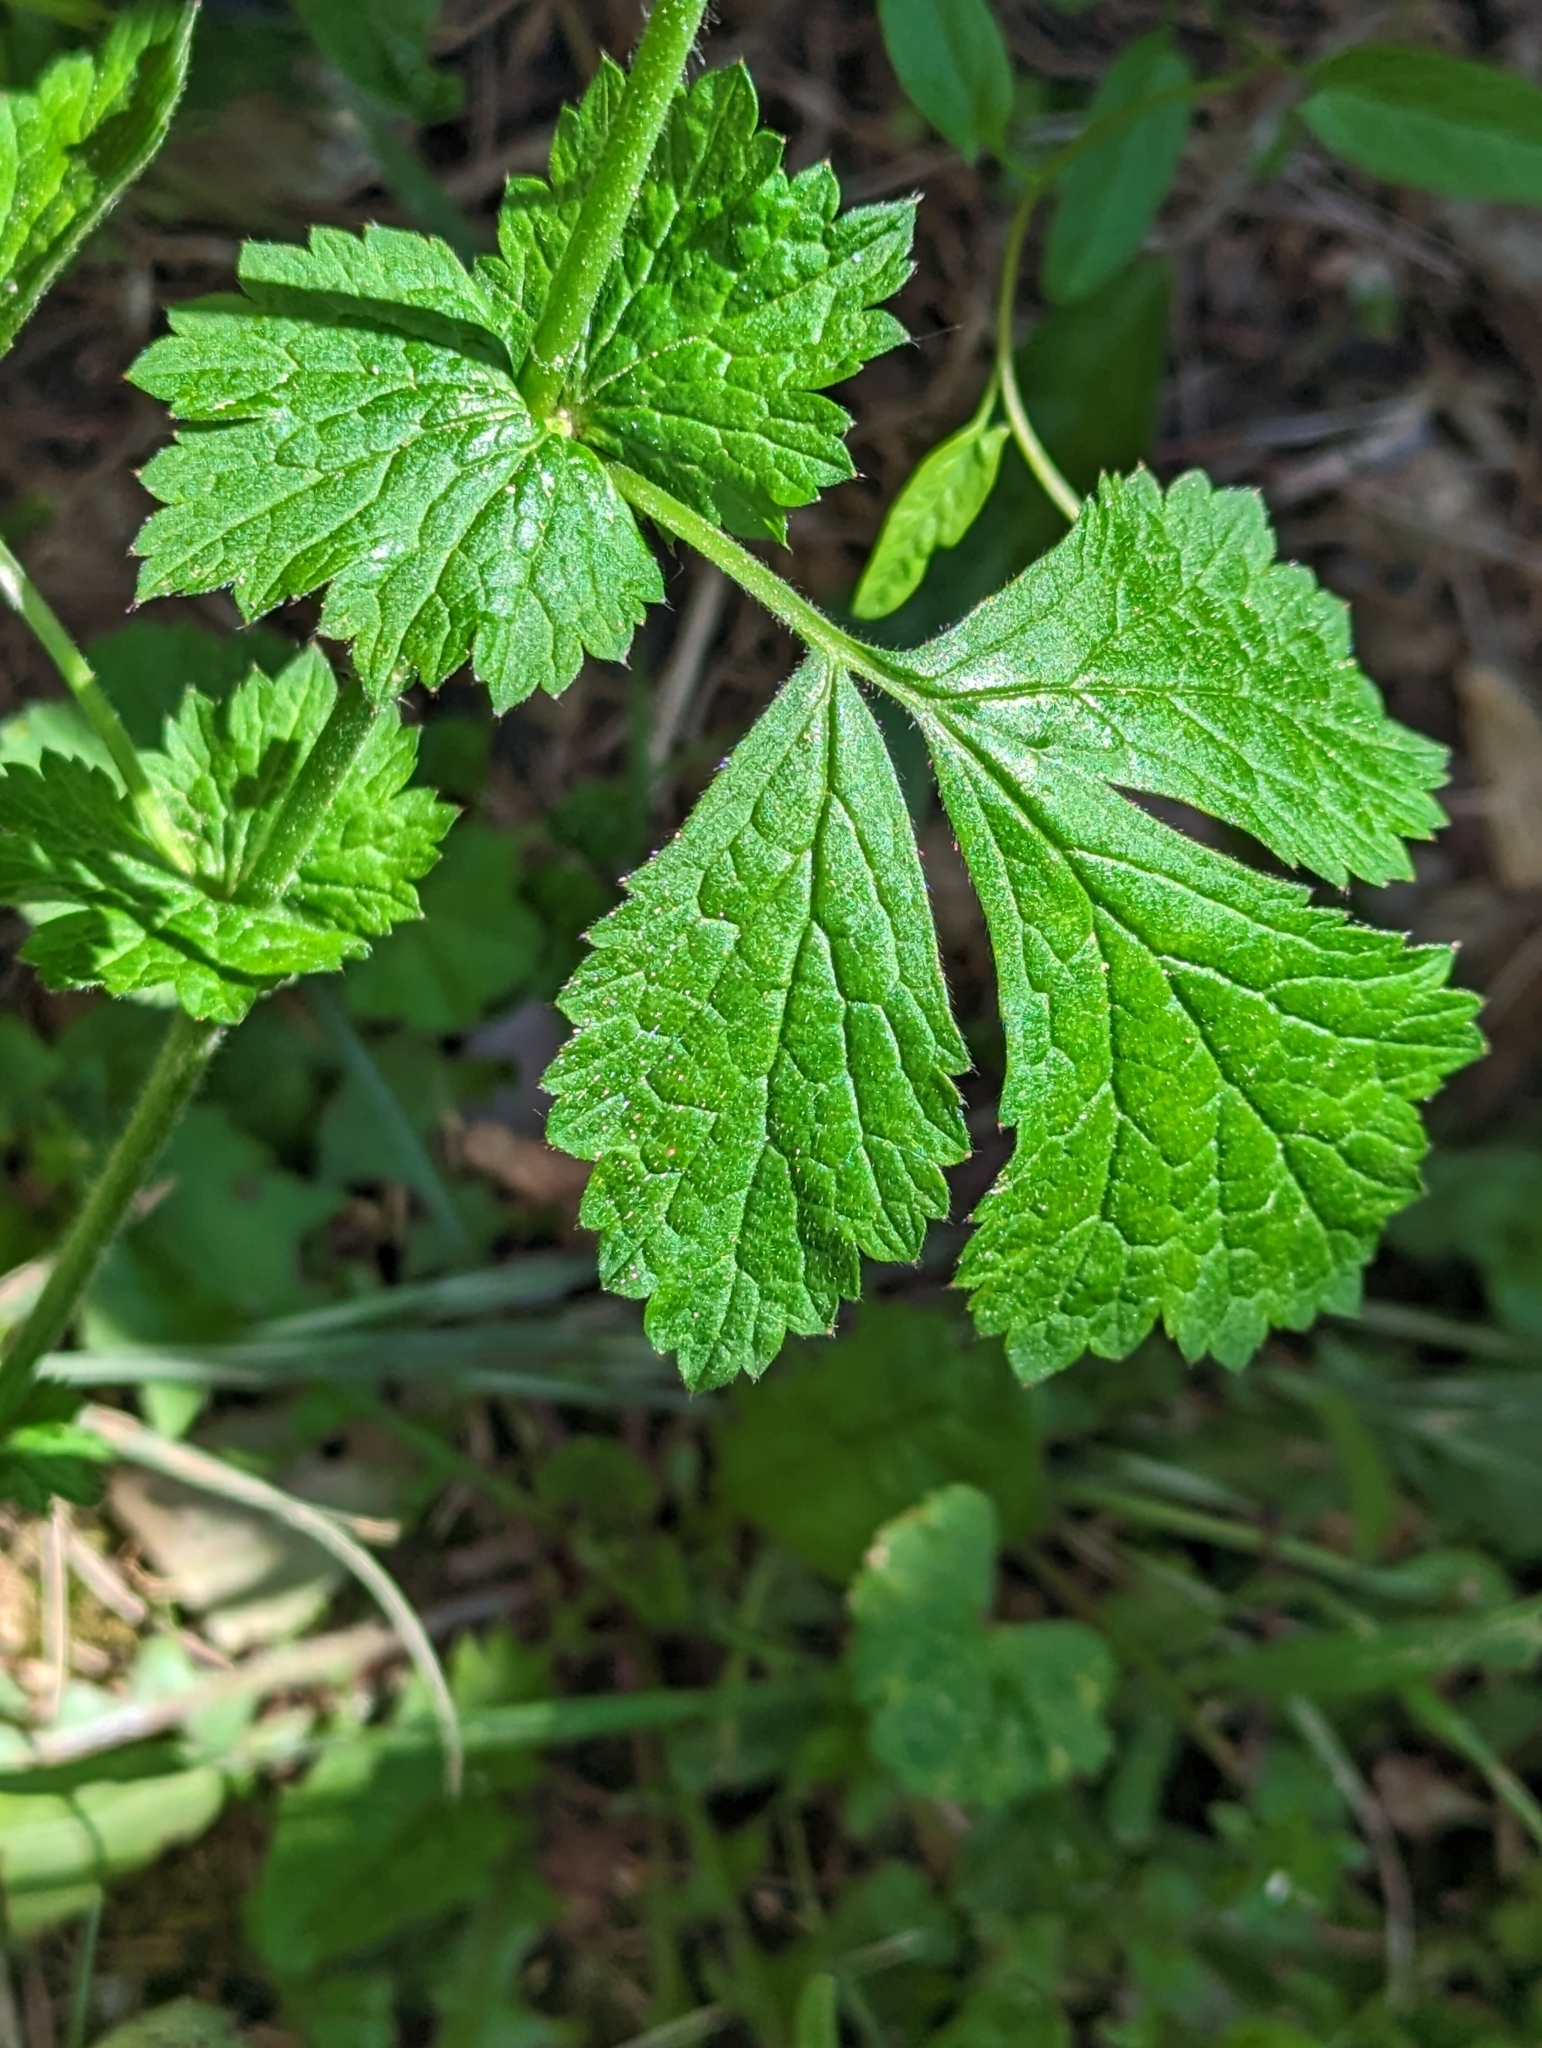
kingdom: Plantae
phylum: Tracheophyta
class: Magnoliopsida
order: Rosales
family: Rosaceae
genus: Geum
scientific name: Geum urbanum
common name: Wood avens
